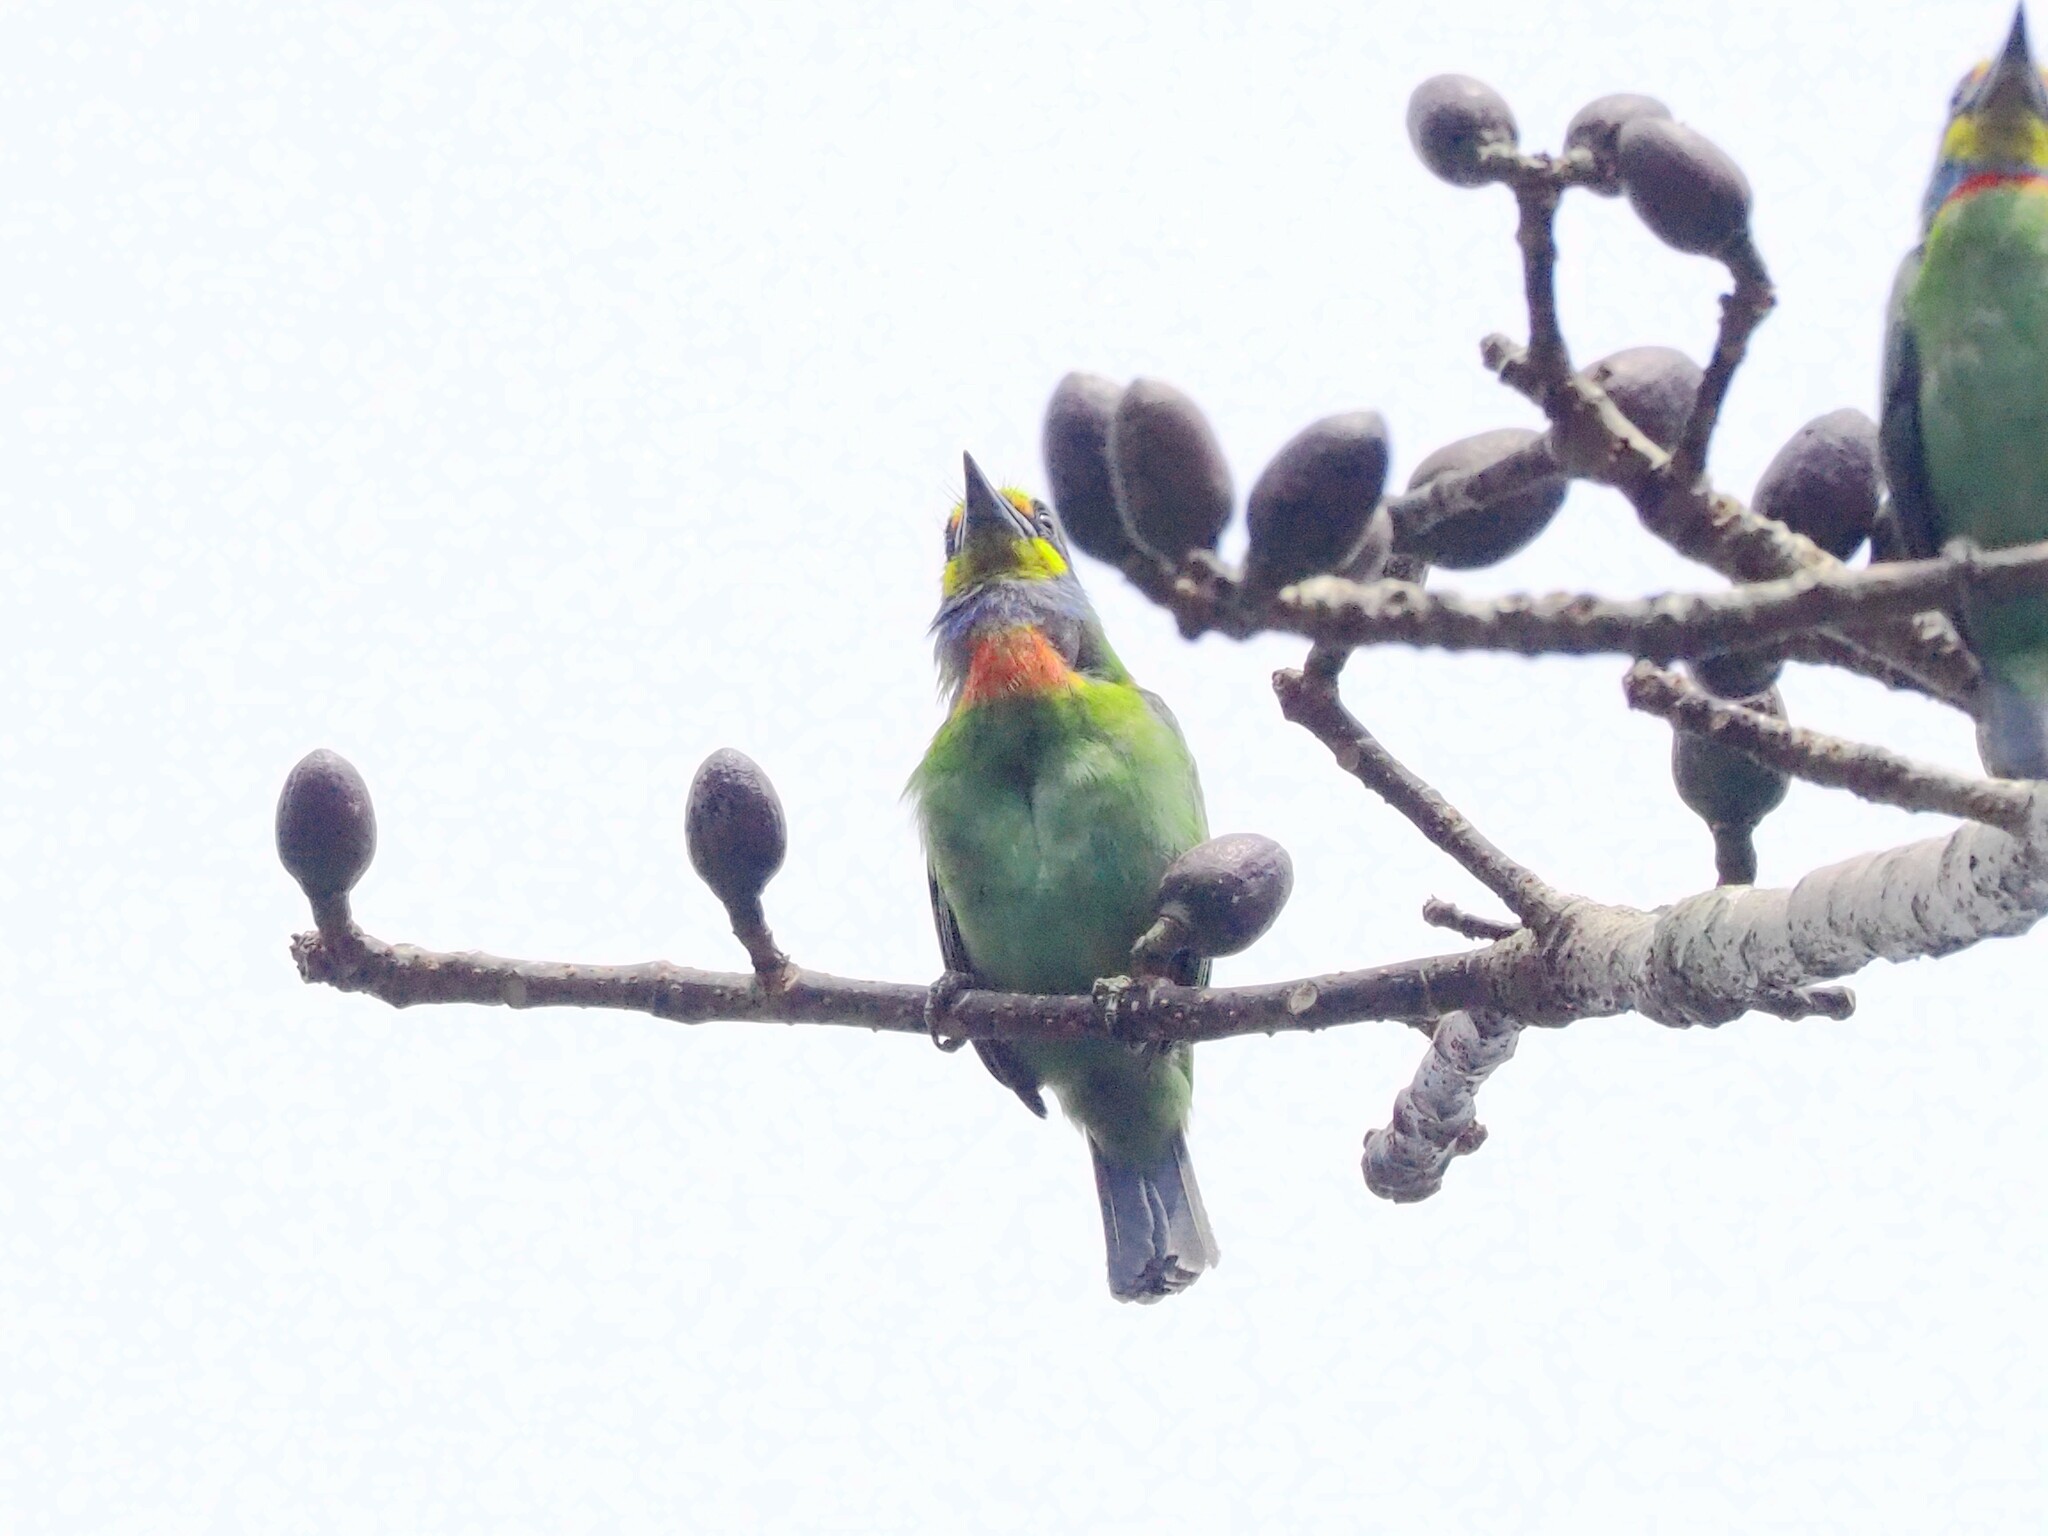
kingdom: Animalia
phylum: Chordata
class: Aves
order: Piciformes
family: Megalaimidae
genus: Psilopogon
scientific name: Psilopogon nuchalis
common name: Taiwan barbet
